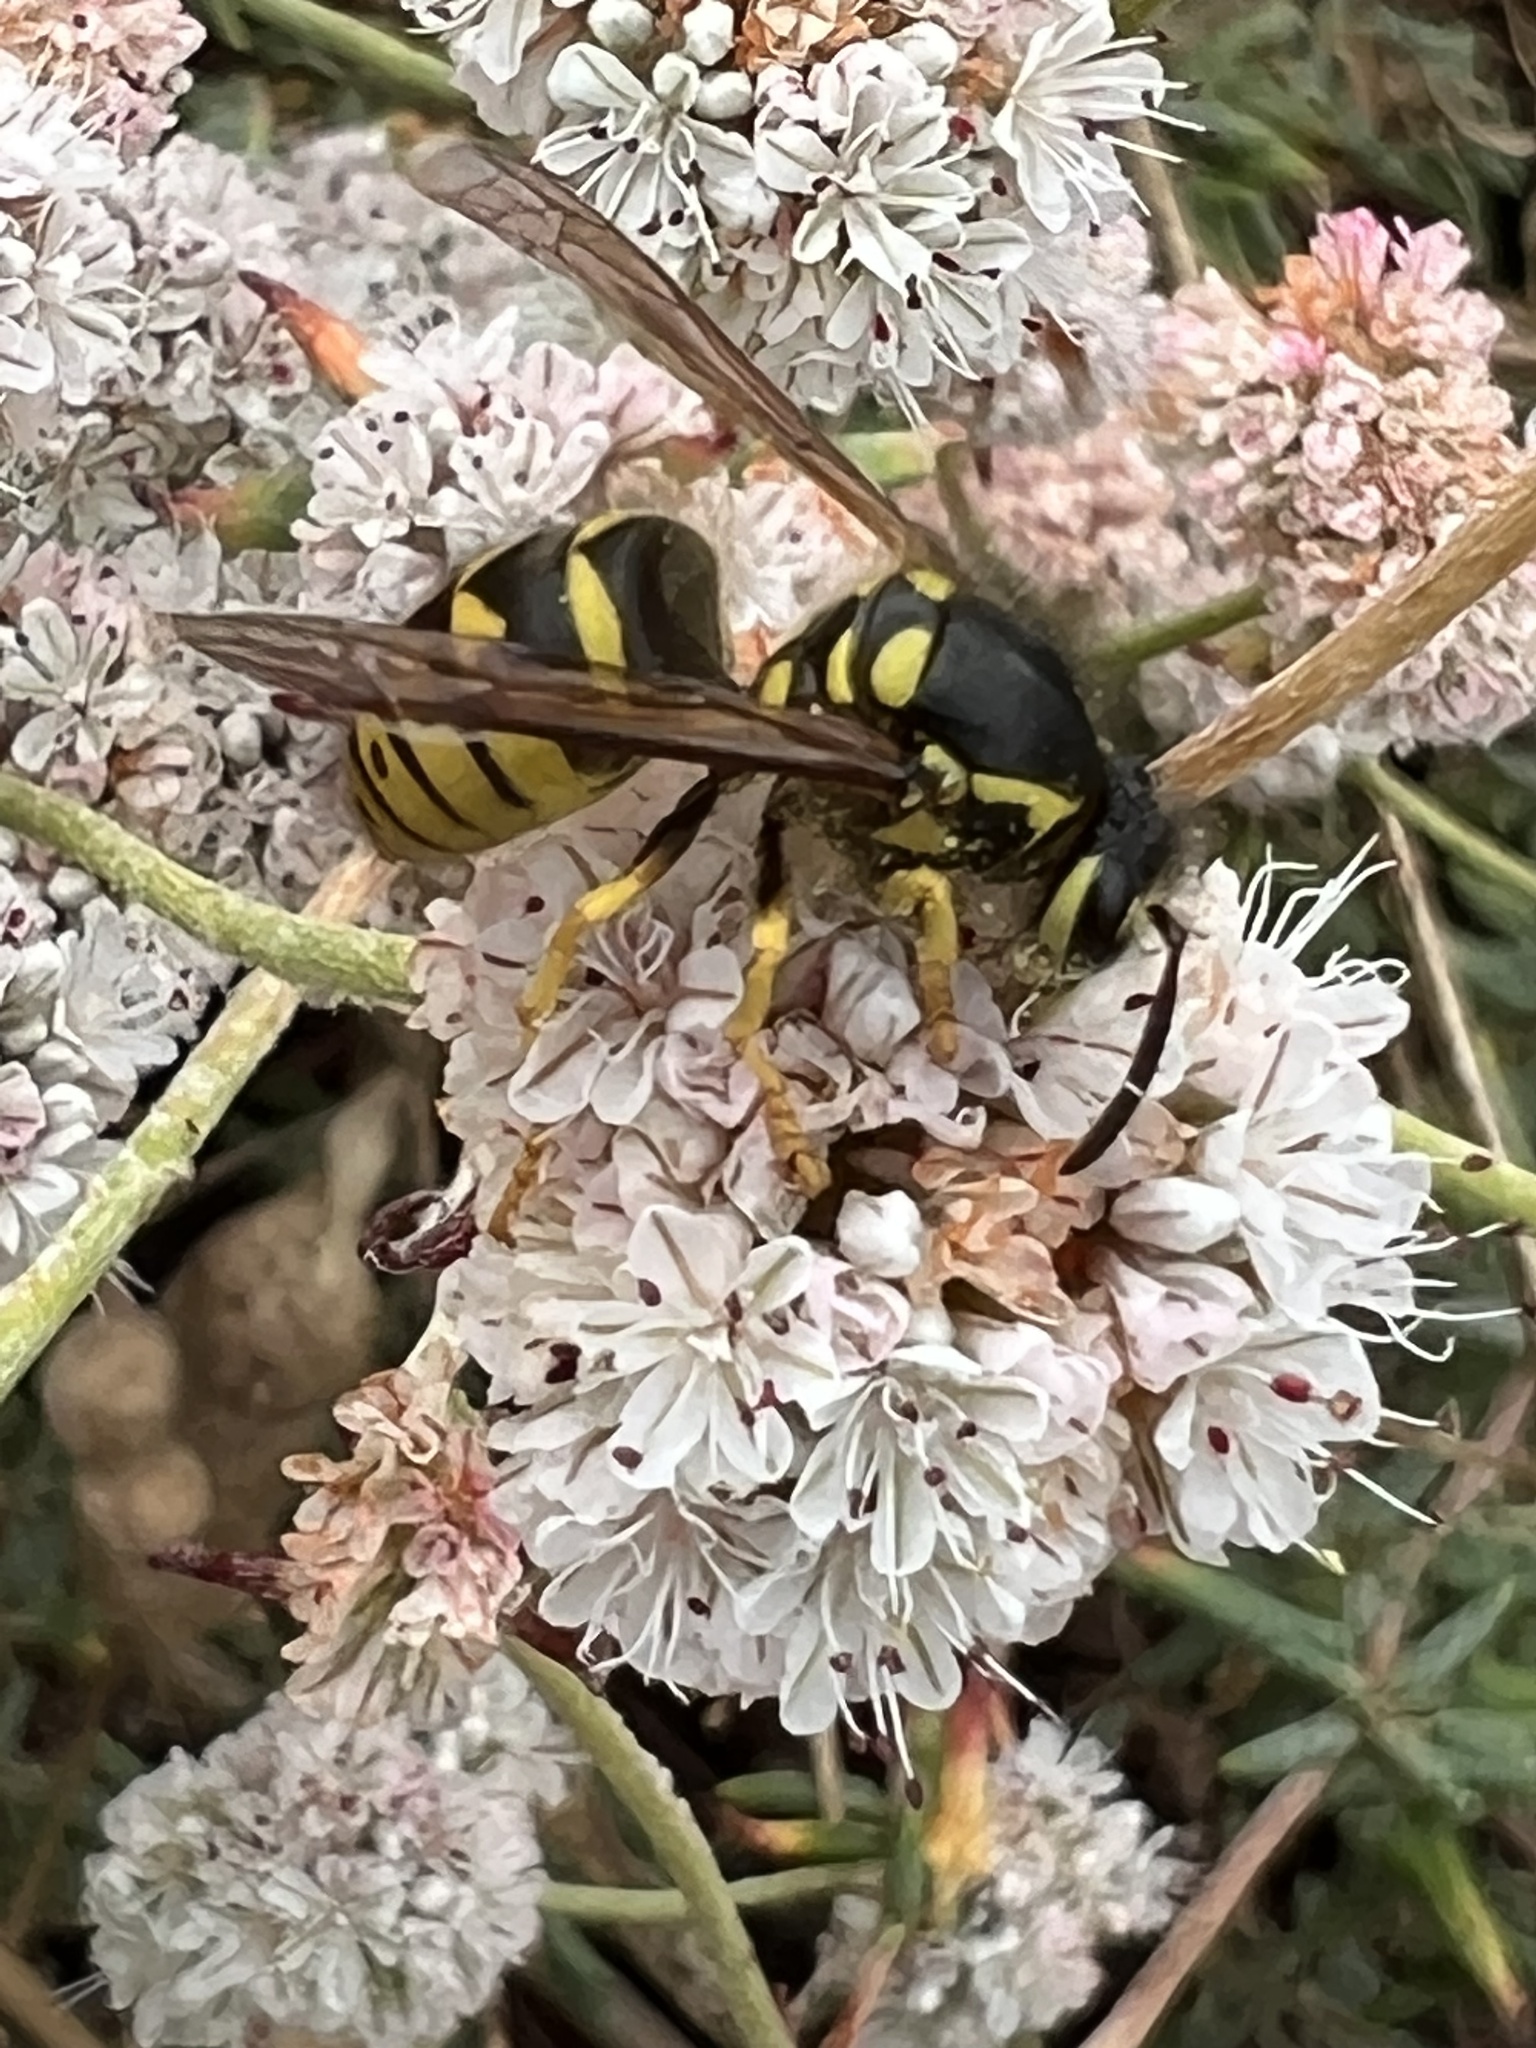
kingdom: Animalia
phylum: Arthropoda
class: Insecta
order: Hymenoptera
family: Vespidae
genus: Dolichovespula
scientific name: Dolichovespula arenaria
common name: Aerial yellowjacket
